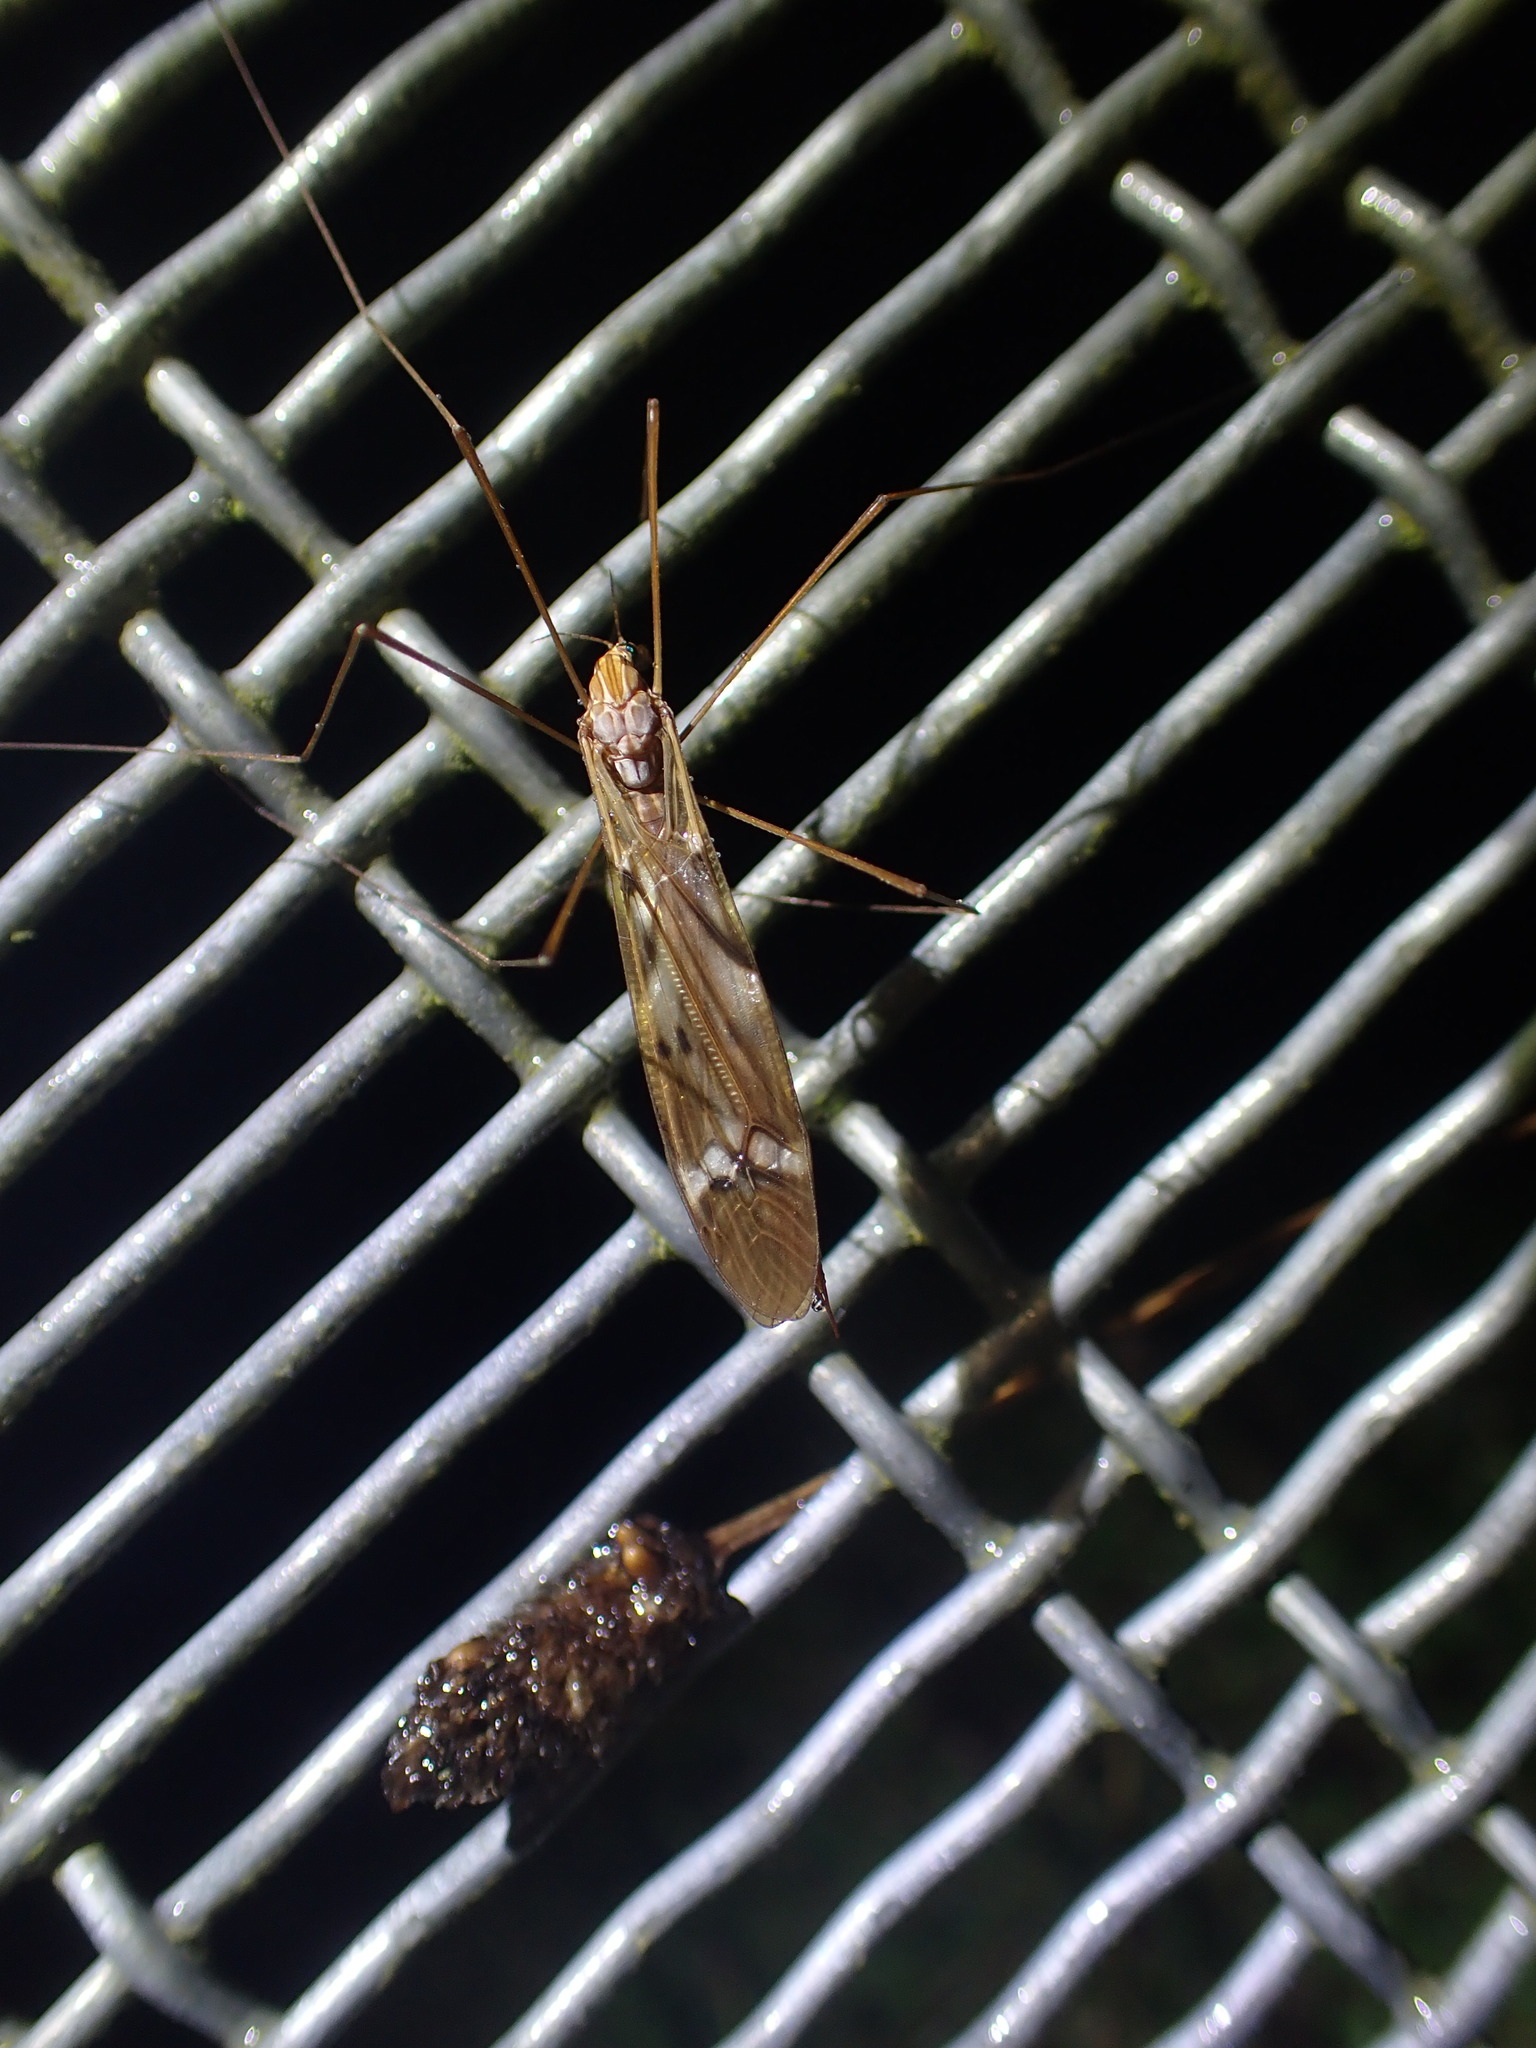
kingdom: Animalia
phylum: Arthropoda
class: Insecta
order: Diptera
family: Tipulidae
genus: Zelandotipula
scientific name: Zelandotipula fulva
